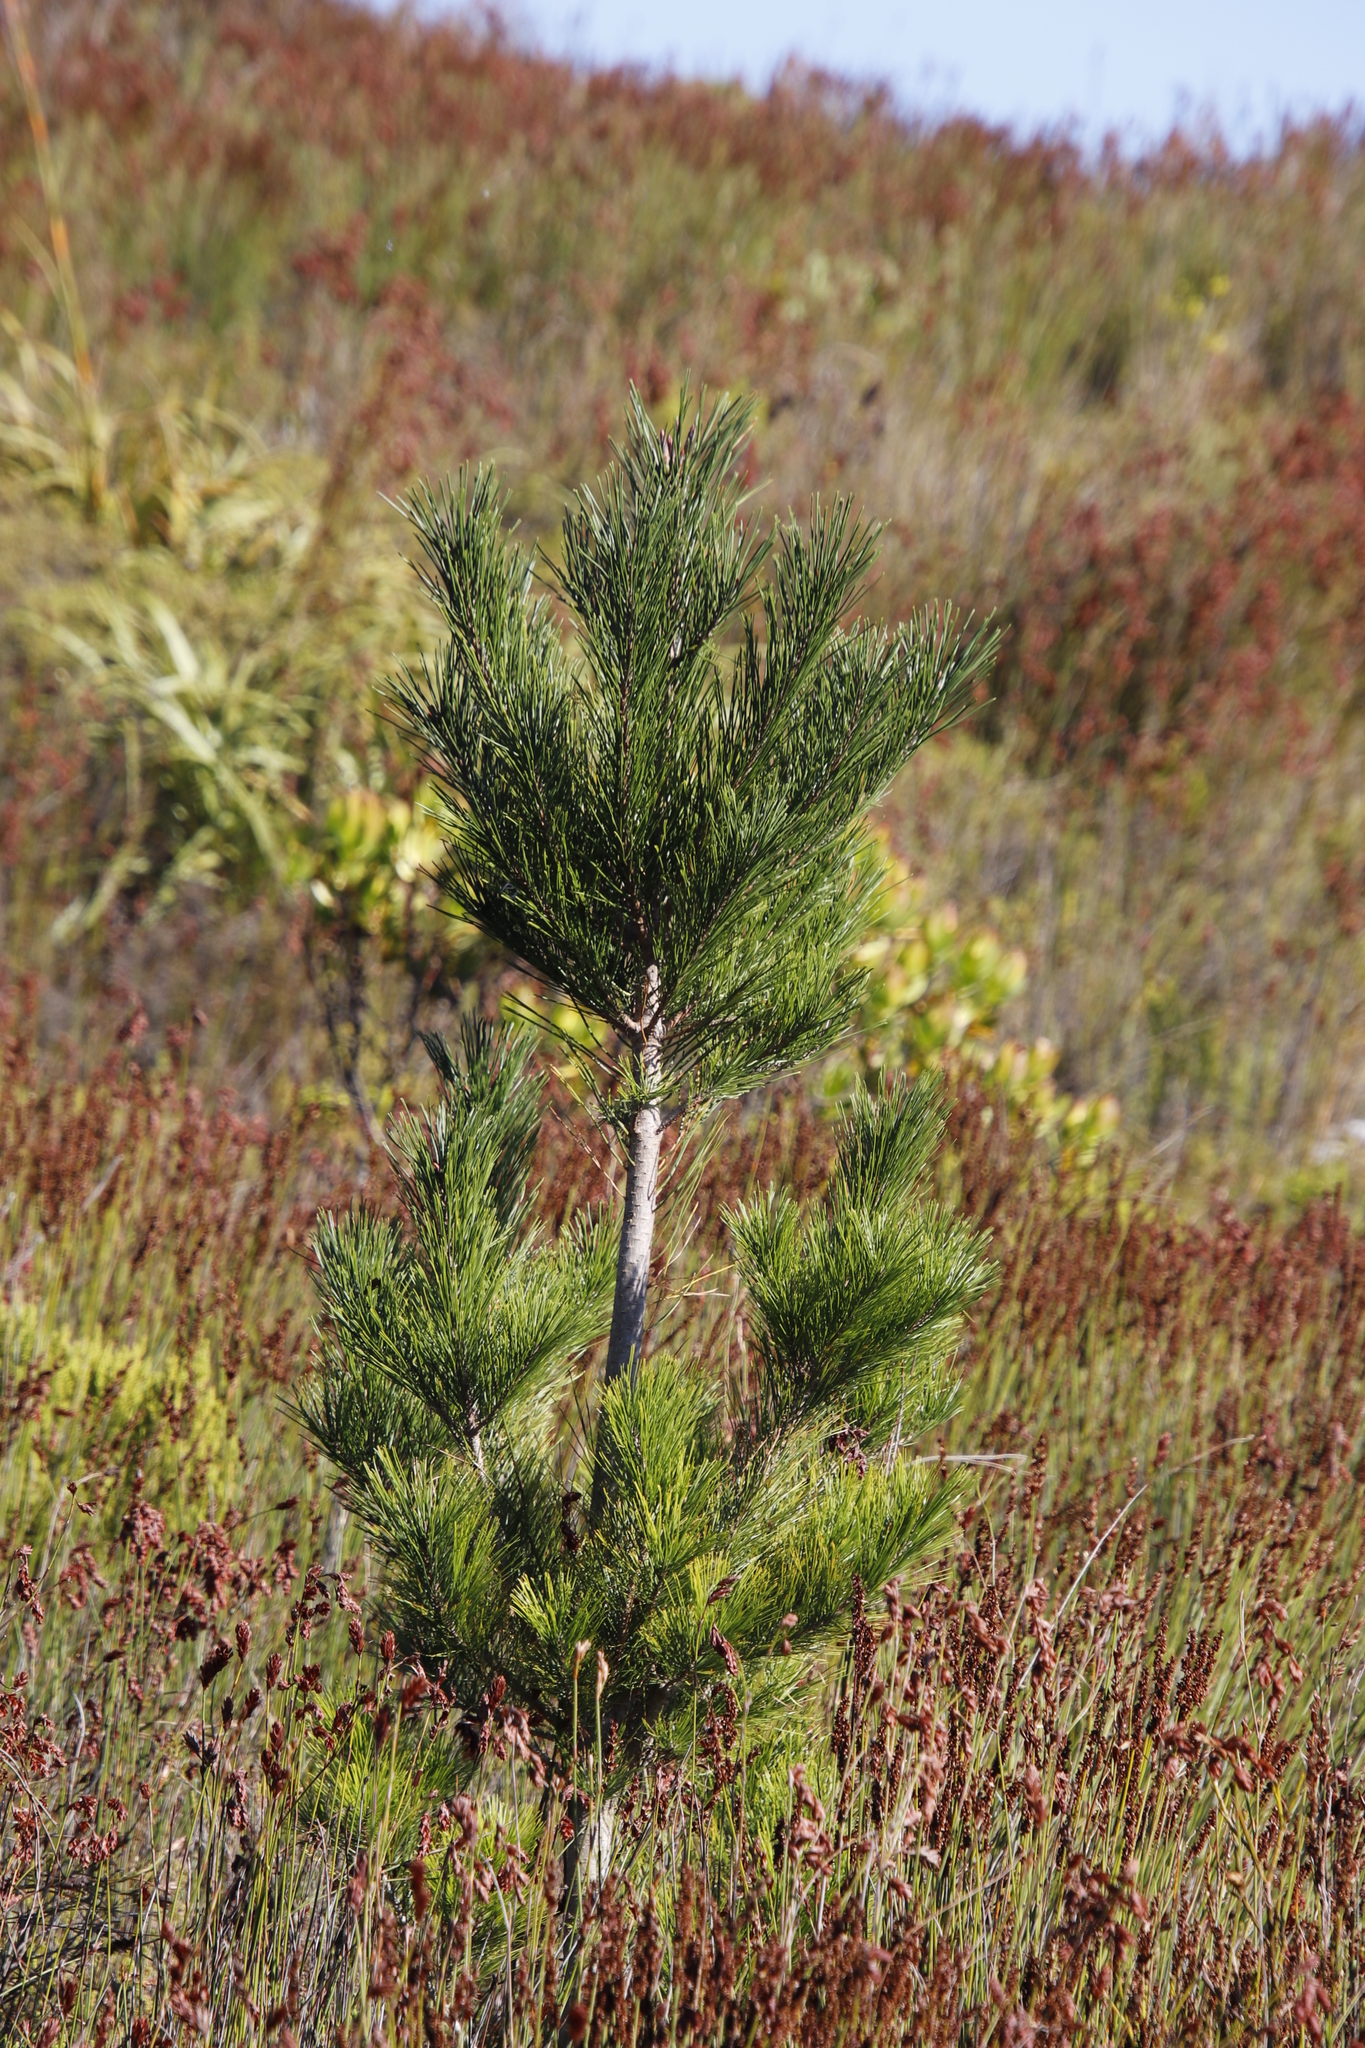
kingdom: Plantae
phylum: Tracheophyta
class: Pinopsida
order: Pinales
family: Pinaceae
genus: Pinus
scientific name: Pinus radiata
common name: Monterey pine
